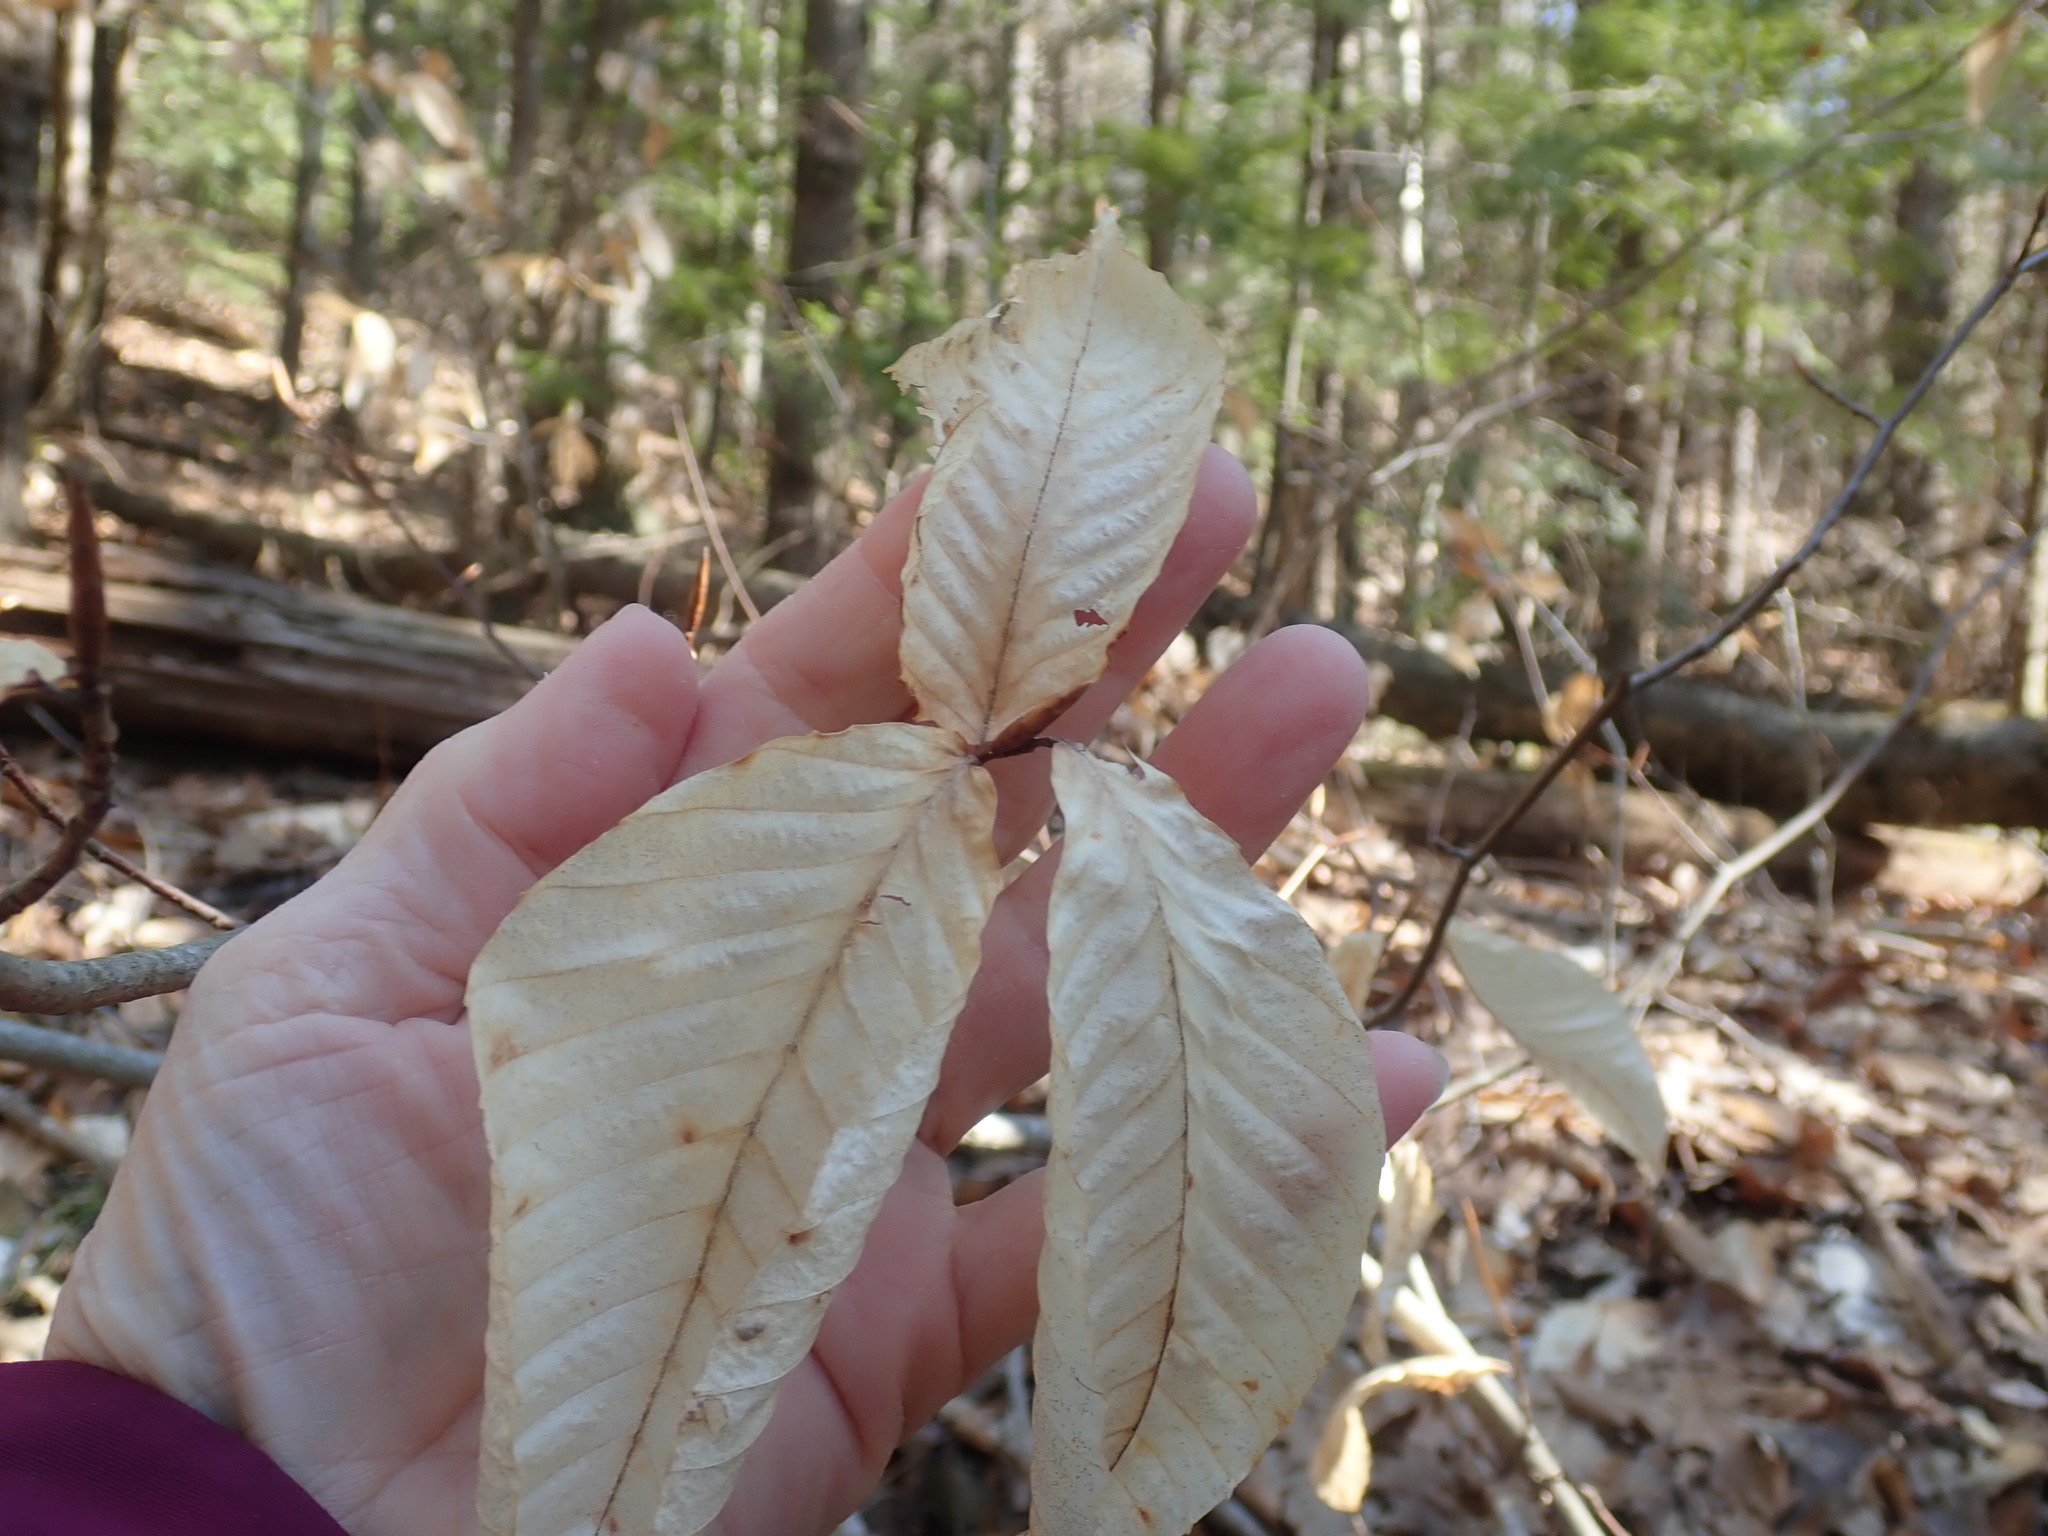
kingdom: Plantae
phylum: Tracheophyta
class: Magnoliopsida
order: Fagales
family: Fagaceae
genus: Fagus
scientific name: Fagus grandifolia
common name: American beech
